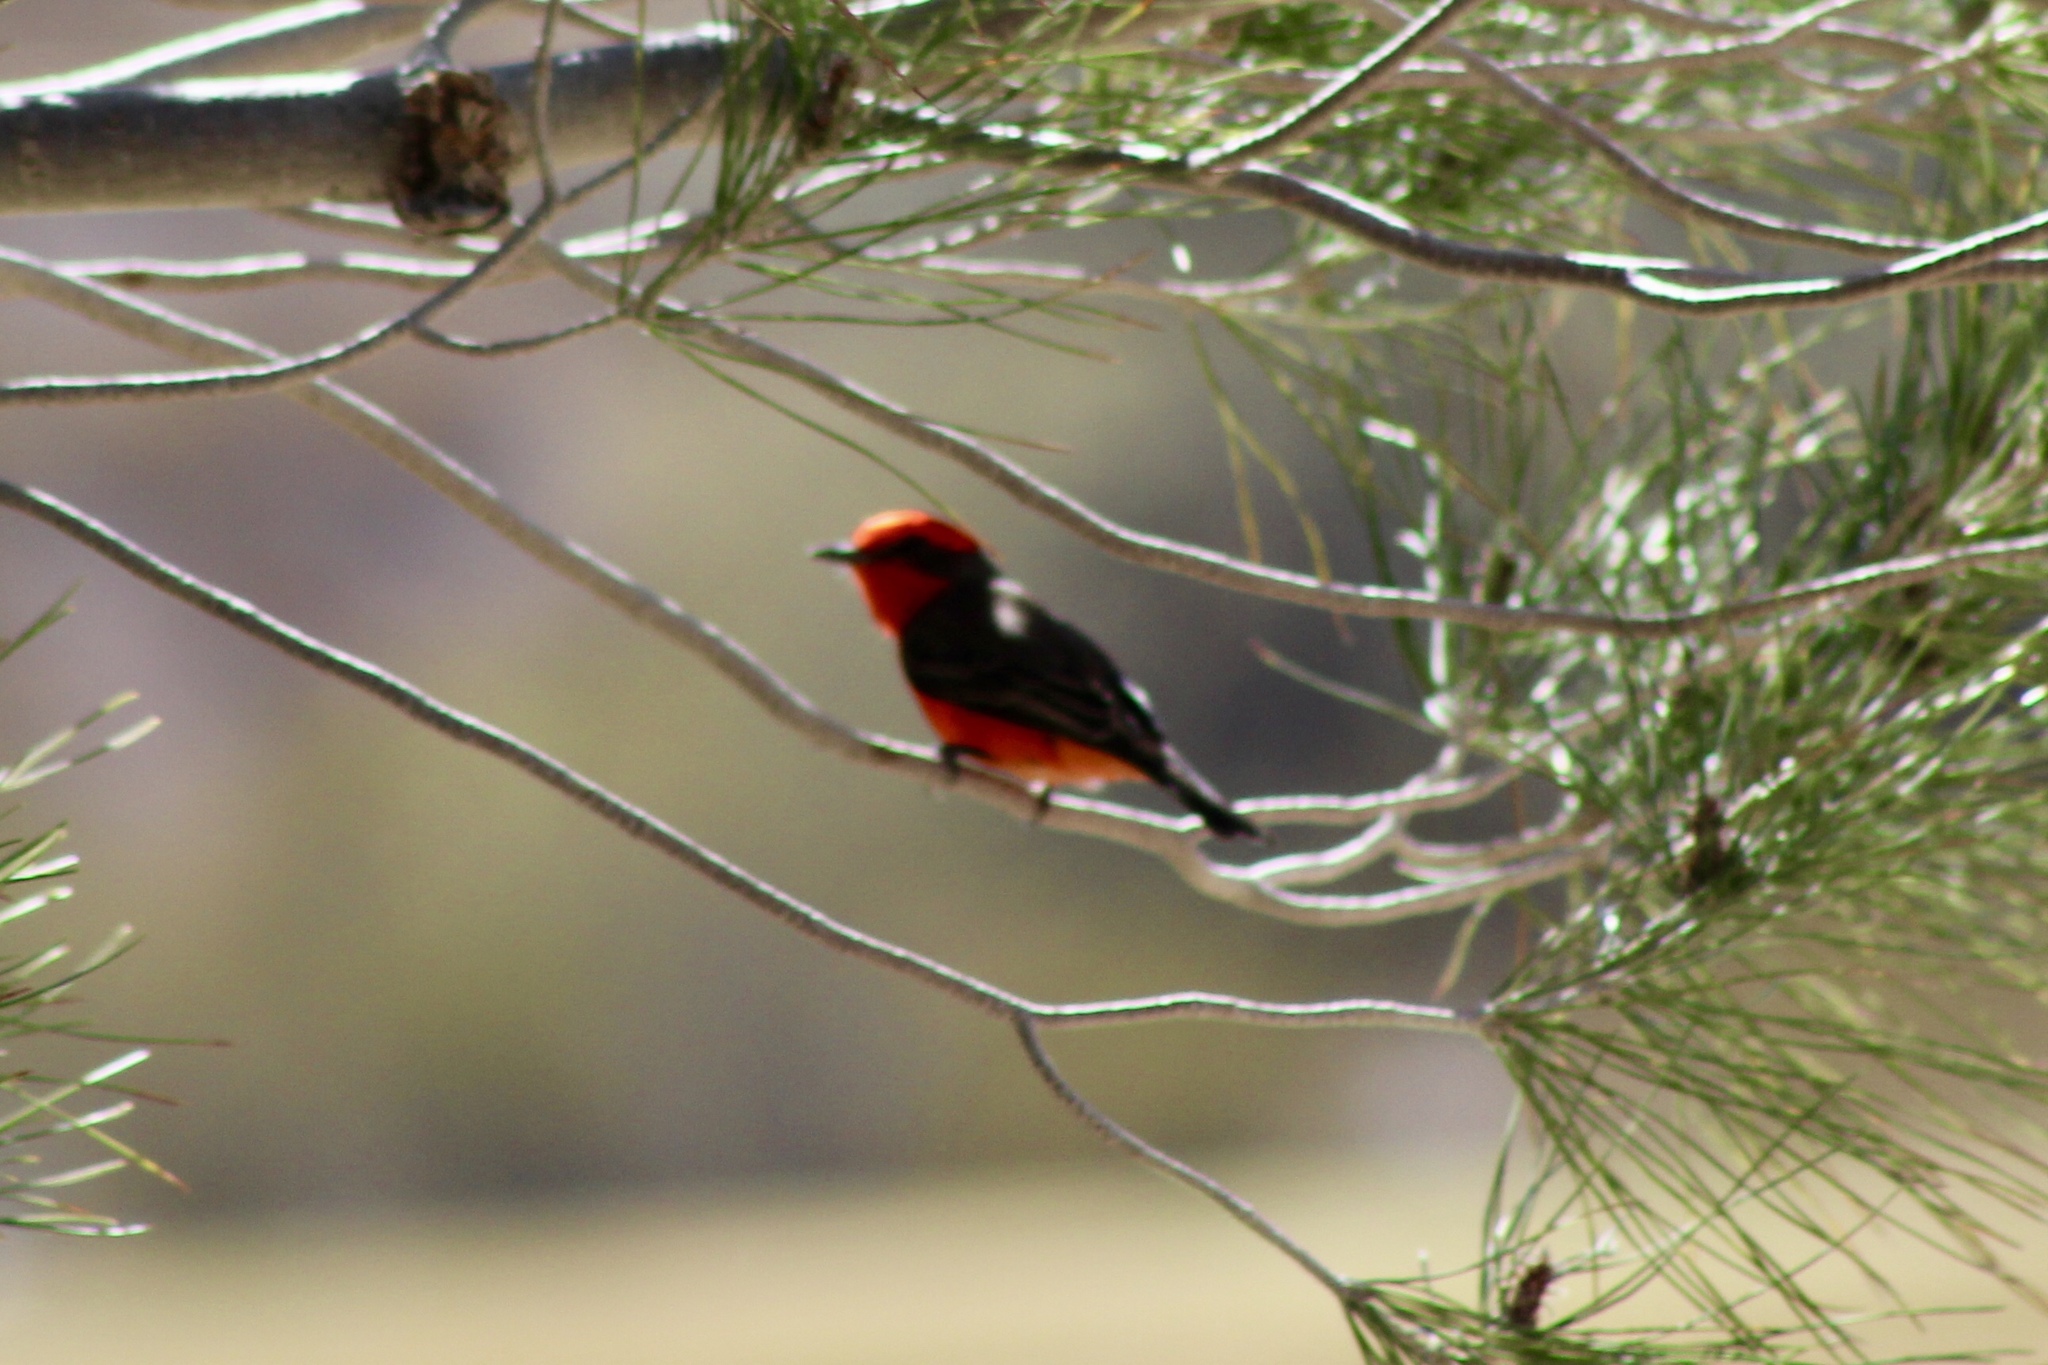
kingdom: Animalia
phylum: Chordata
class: Aves
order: Passeriformes
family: Tyrannidae
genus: Pyrocephalus
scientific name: Pyrocephalus rubinus
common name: Vermilion flycatcher
